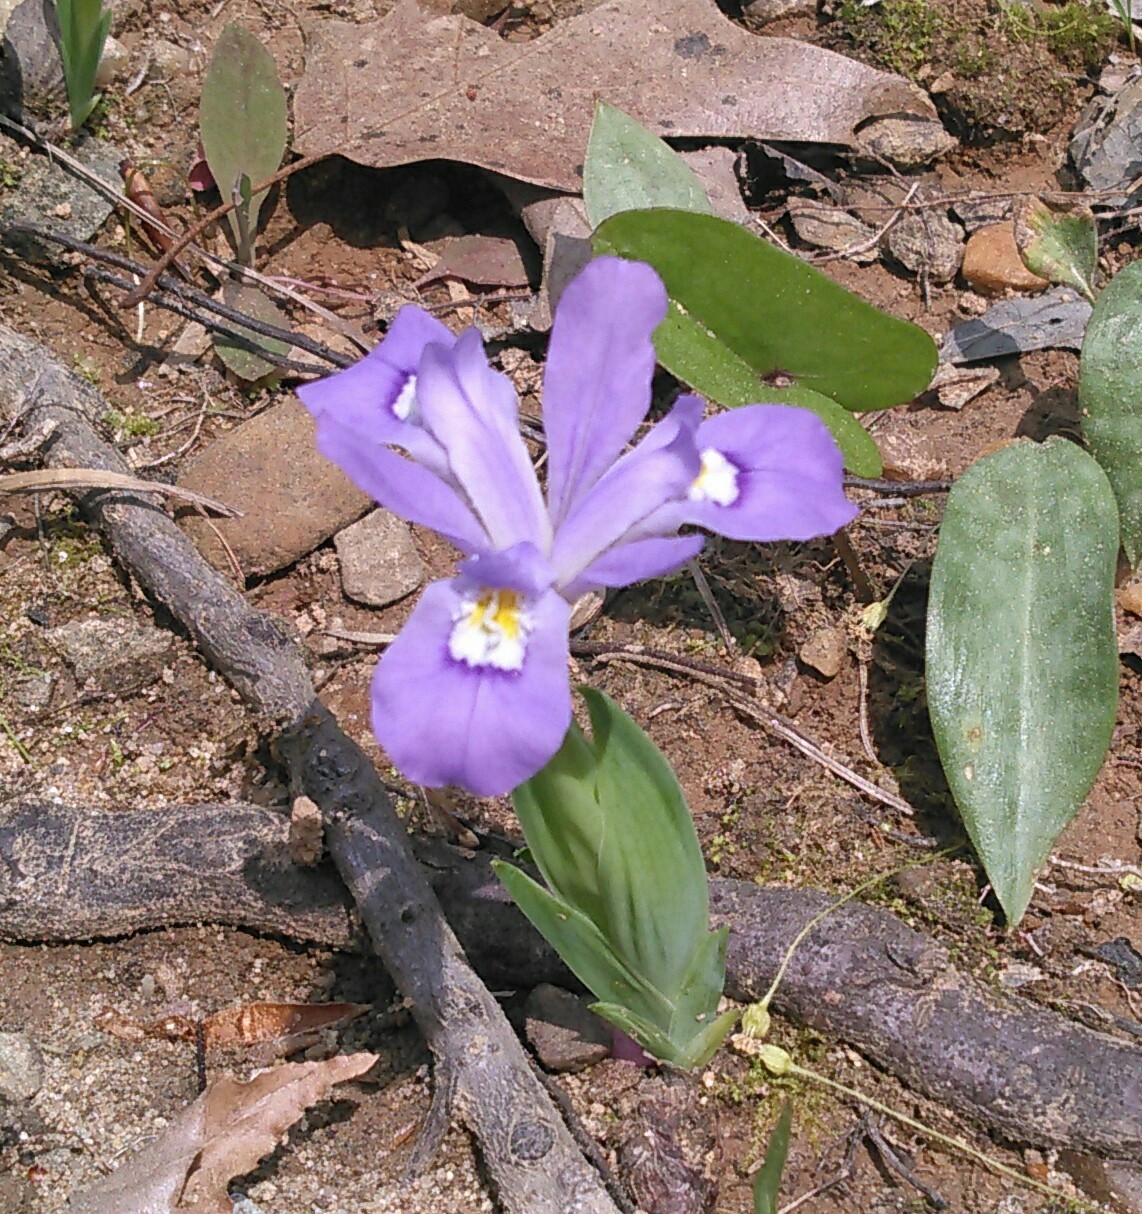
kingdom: Plantae
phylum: Tracheophyta
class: Liliopsida
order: Asparagales
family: Iridaceae
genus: Iris
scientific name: Iris cristata
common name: Crested iris
